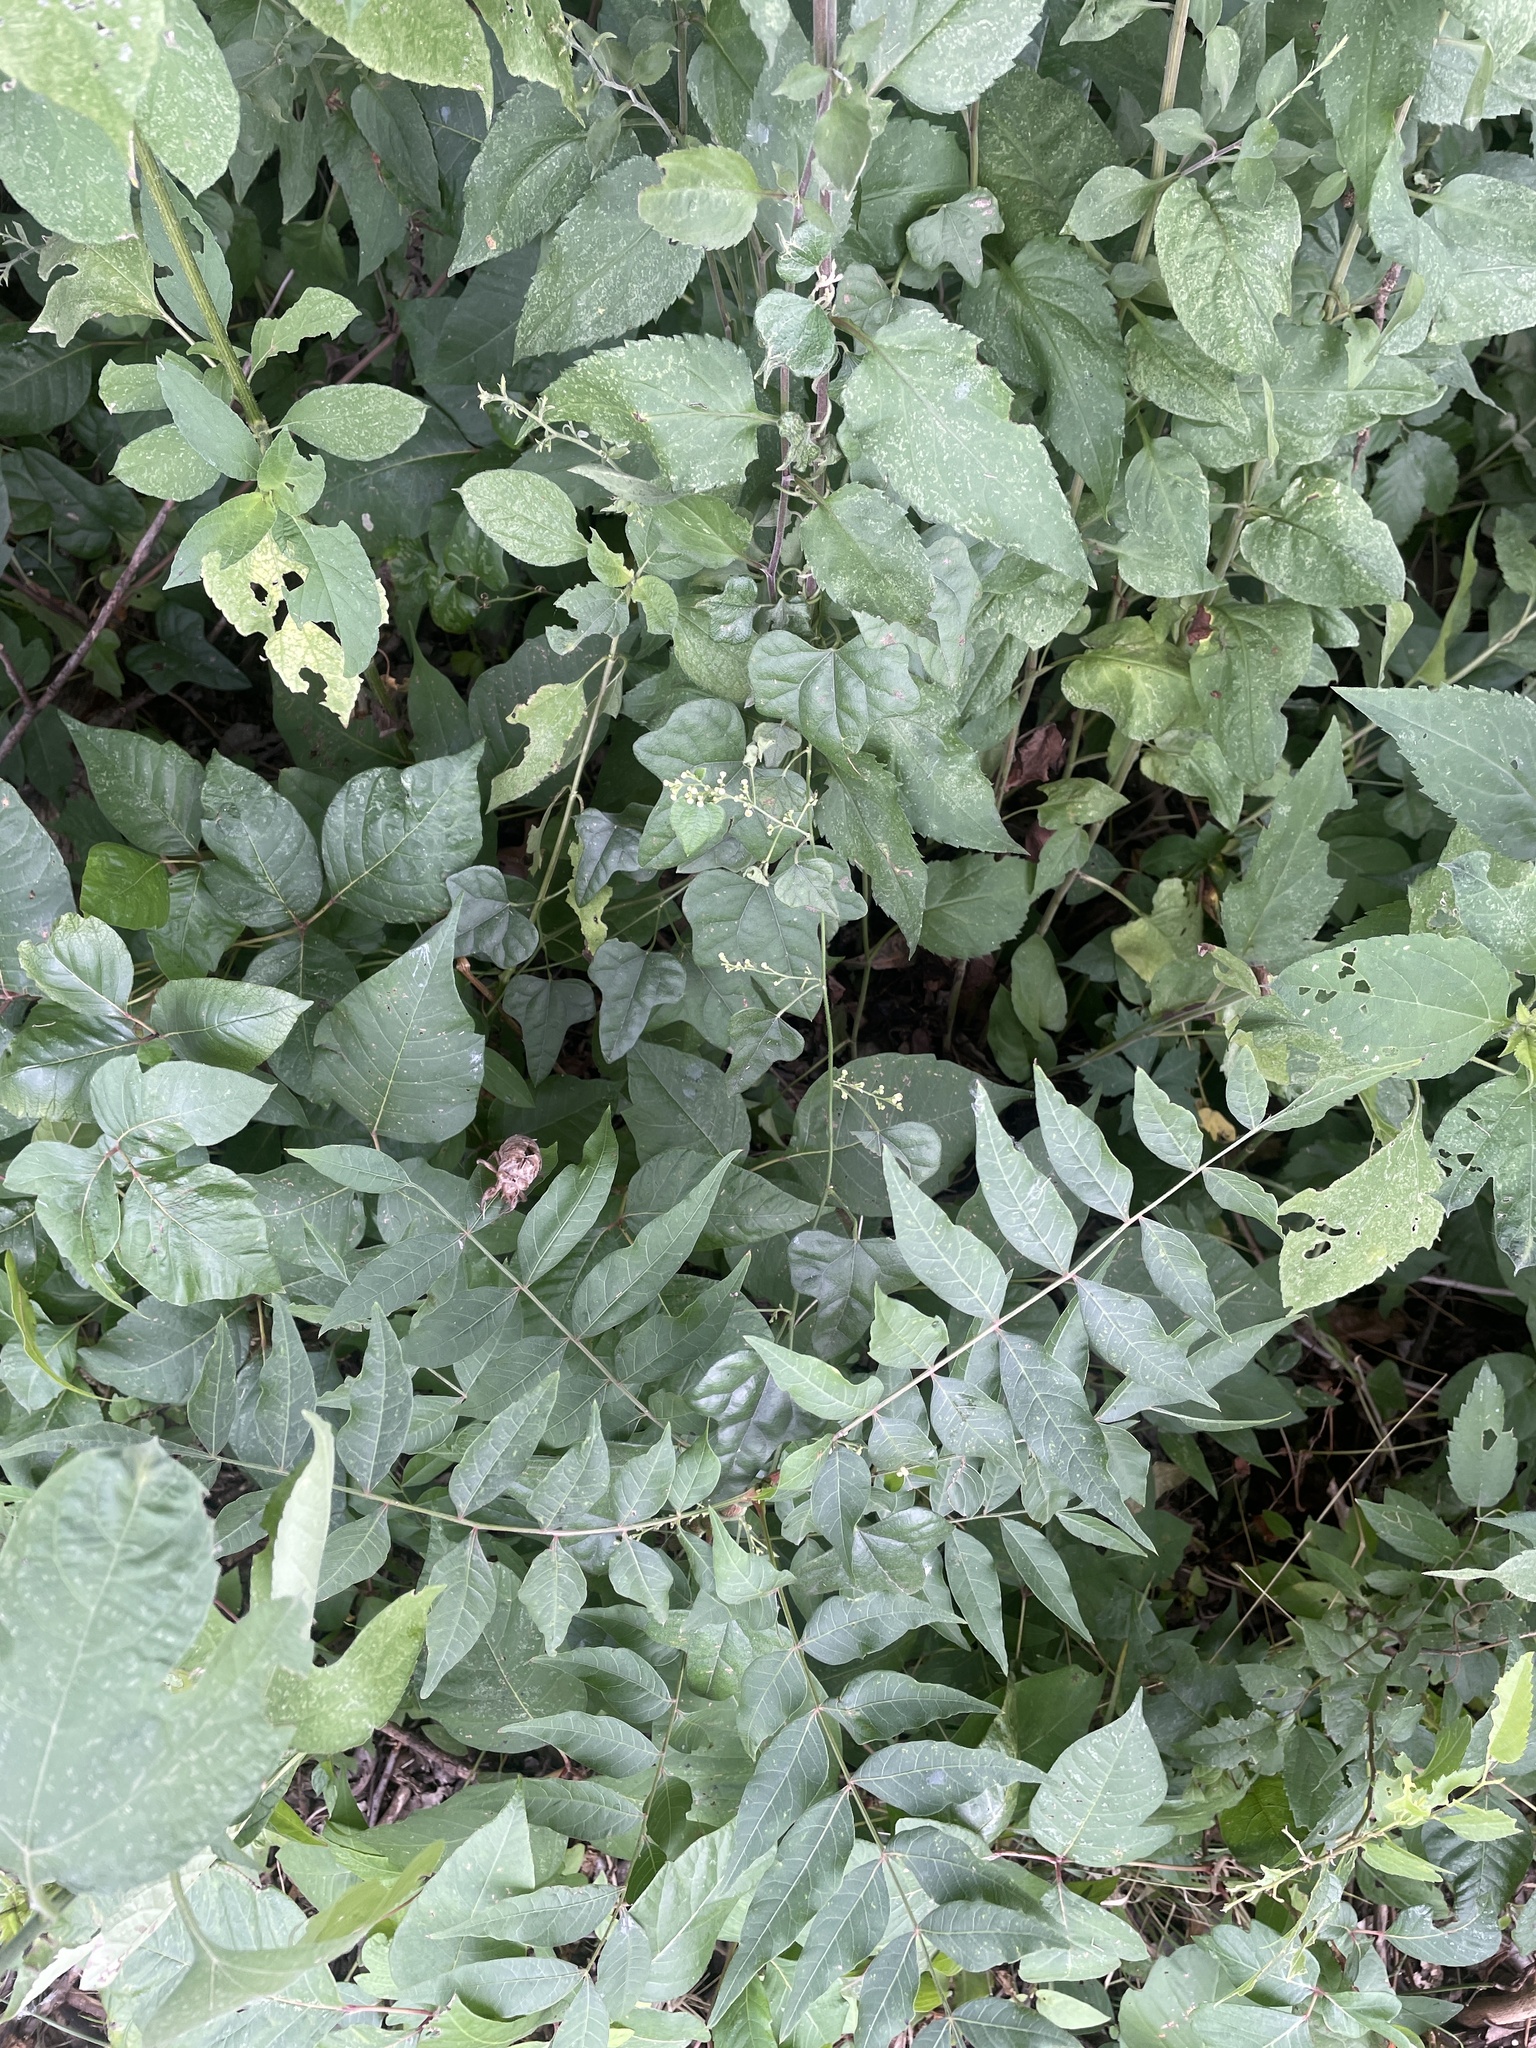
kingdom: Plantae
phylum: Tracheophyta
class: Magnoliopsida
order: Ranunculales
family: Menispermaceae
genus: Cocculus
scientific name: Cocculus carolinus
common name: Carolina moonseed
